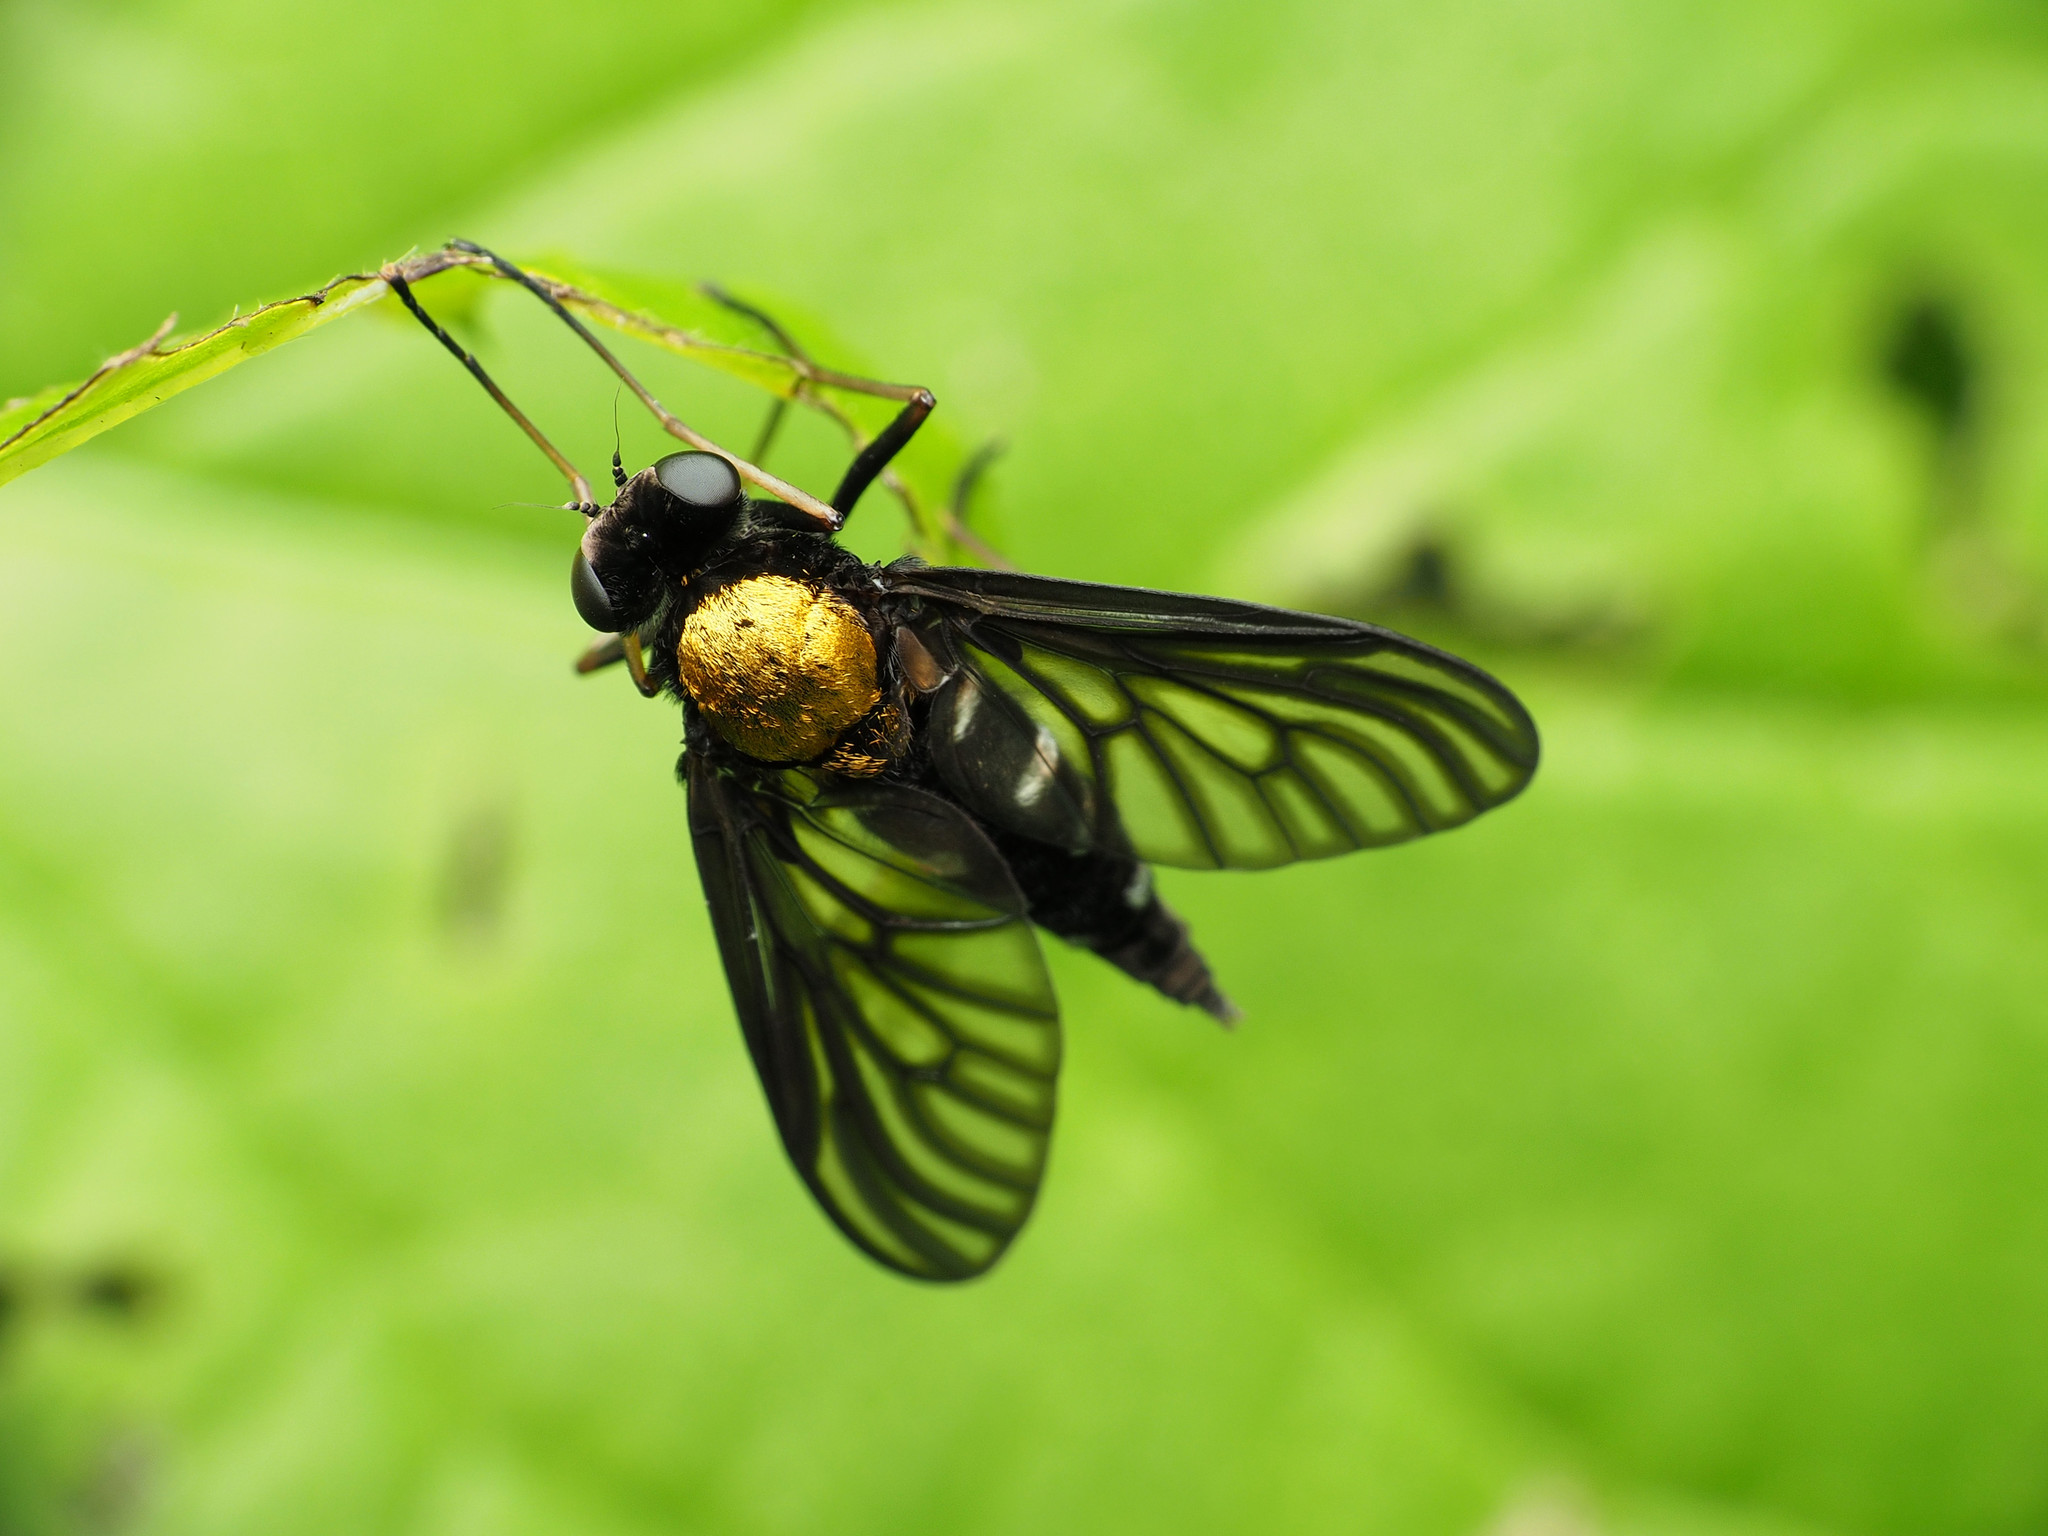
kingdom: Animalia
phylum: Arthropoda
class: Insecta
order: Diptera
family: Rhagionidae
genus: Chrysopilus
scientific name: Chrysopilus thoracicus
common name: Golden-backed snipe fly
